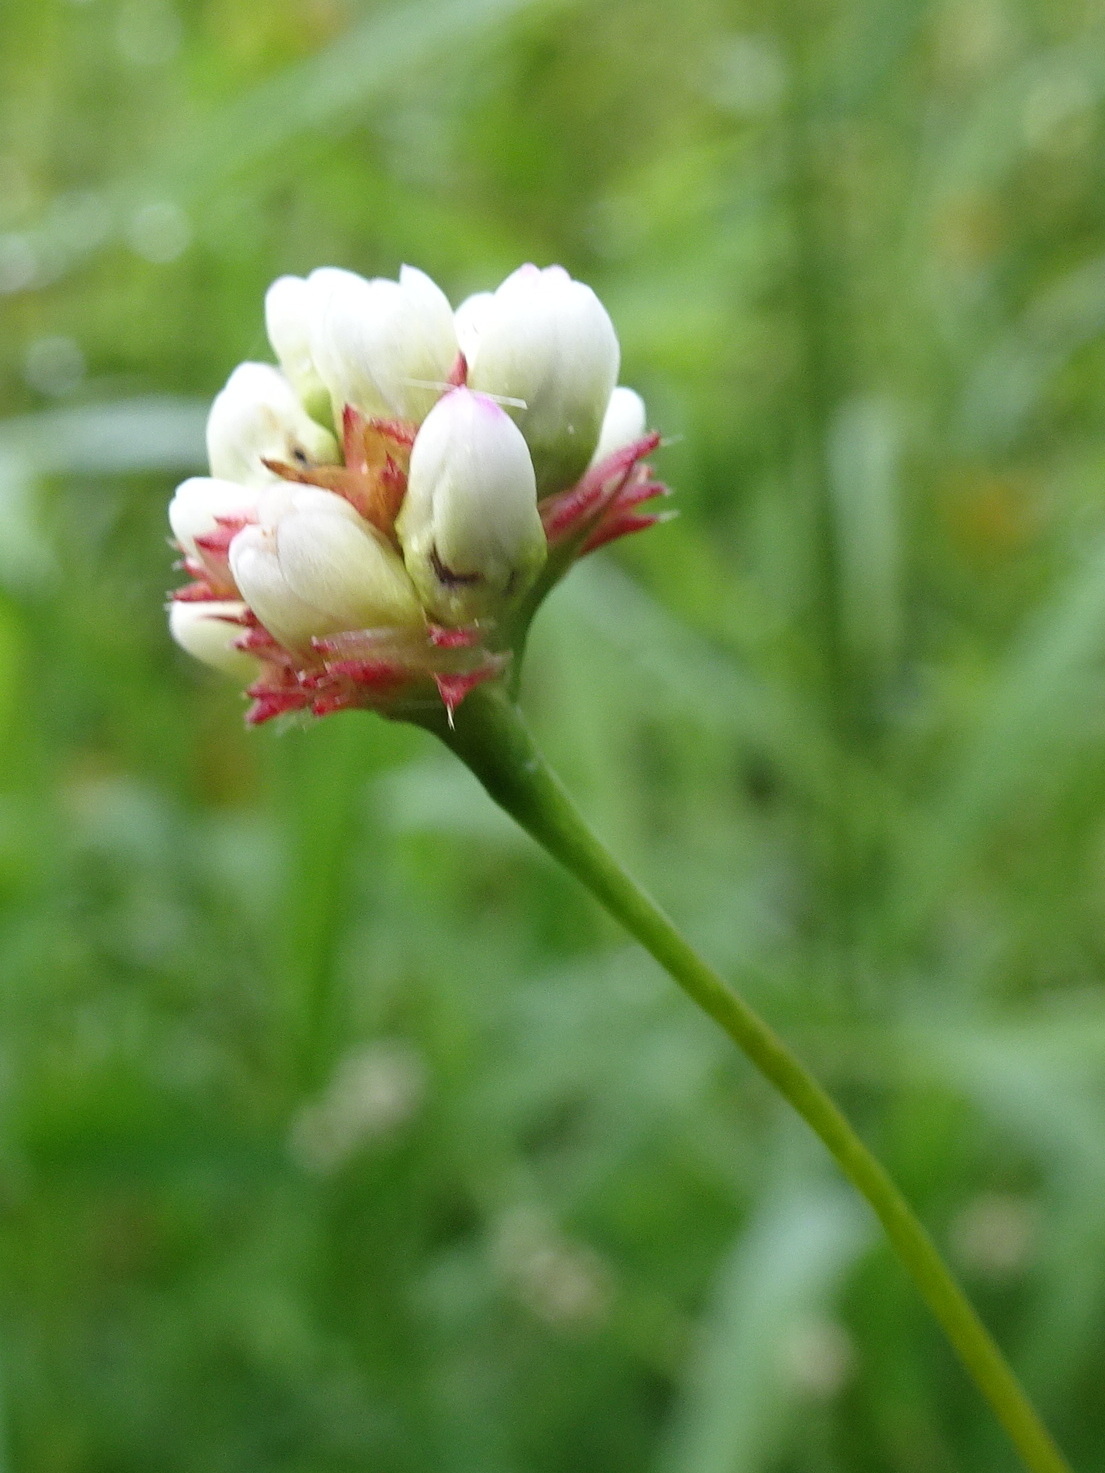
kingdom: Plantae
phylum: Tracheophyta
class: Magnoliopsida
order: Caryophyllales
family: Polygonaceae
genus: Persicaria
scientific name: Persicaria sagittata
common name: American tearthumb
